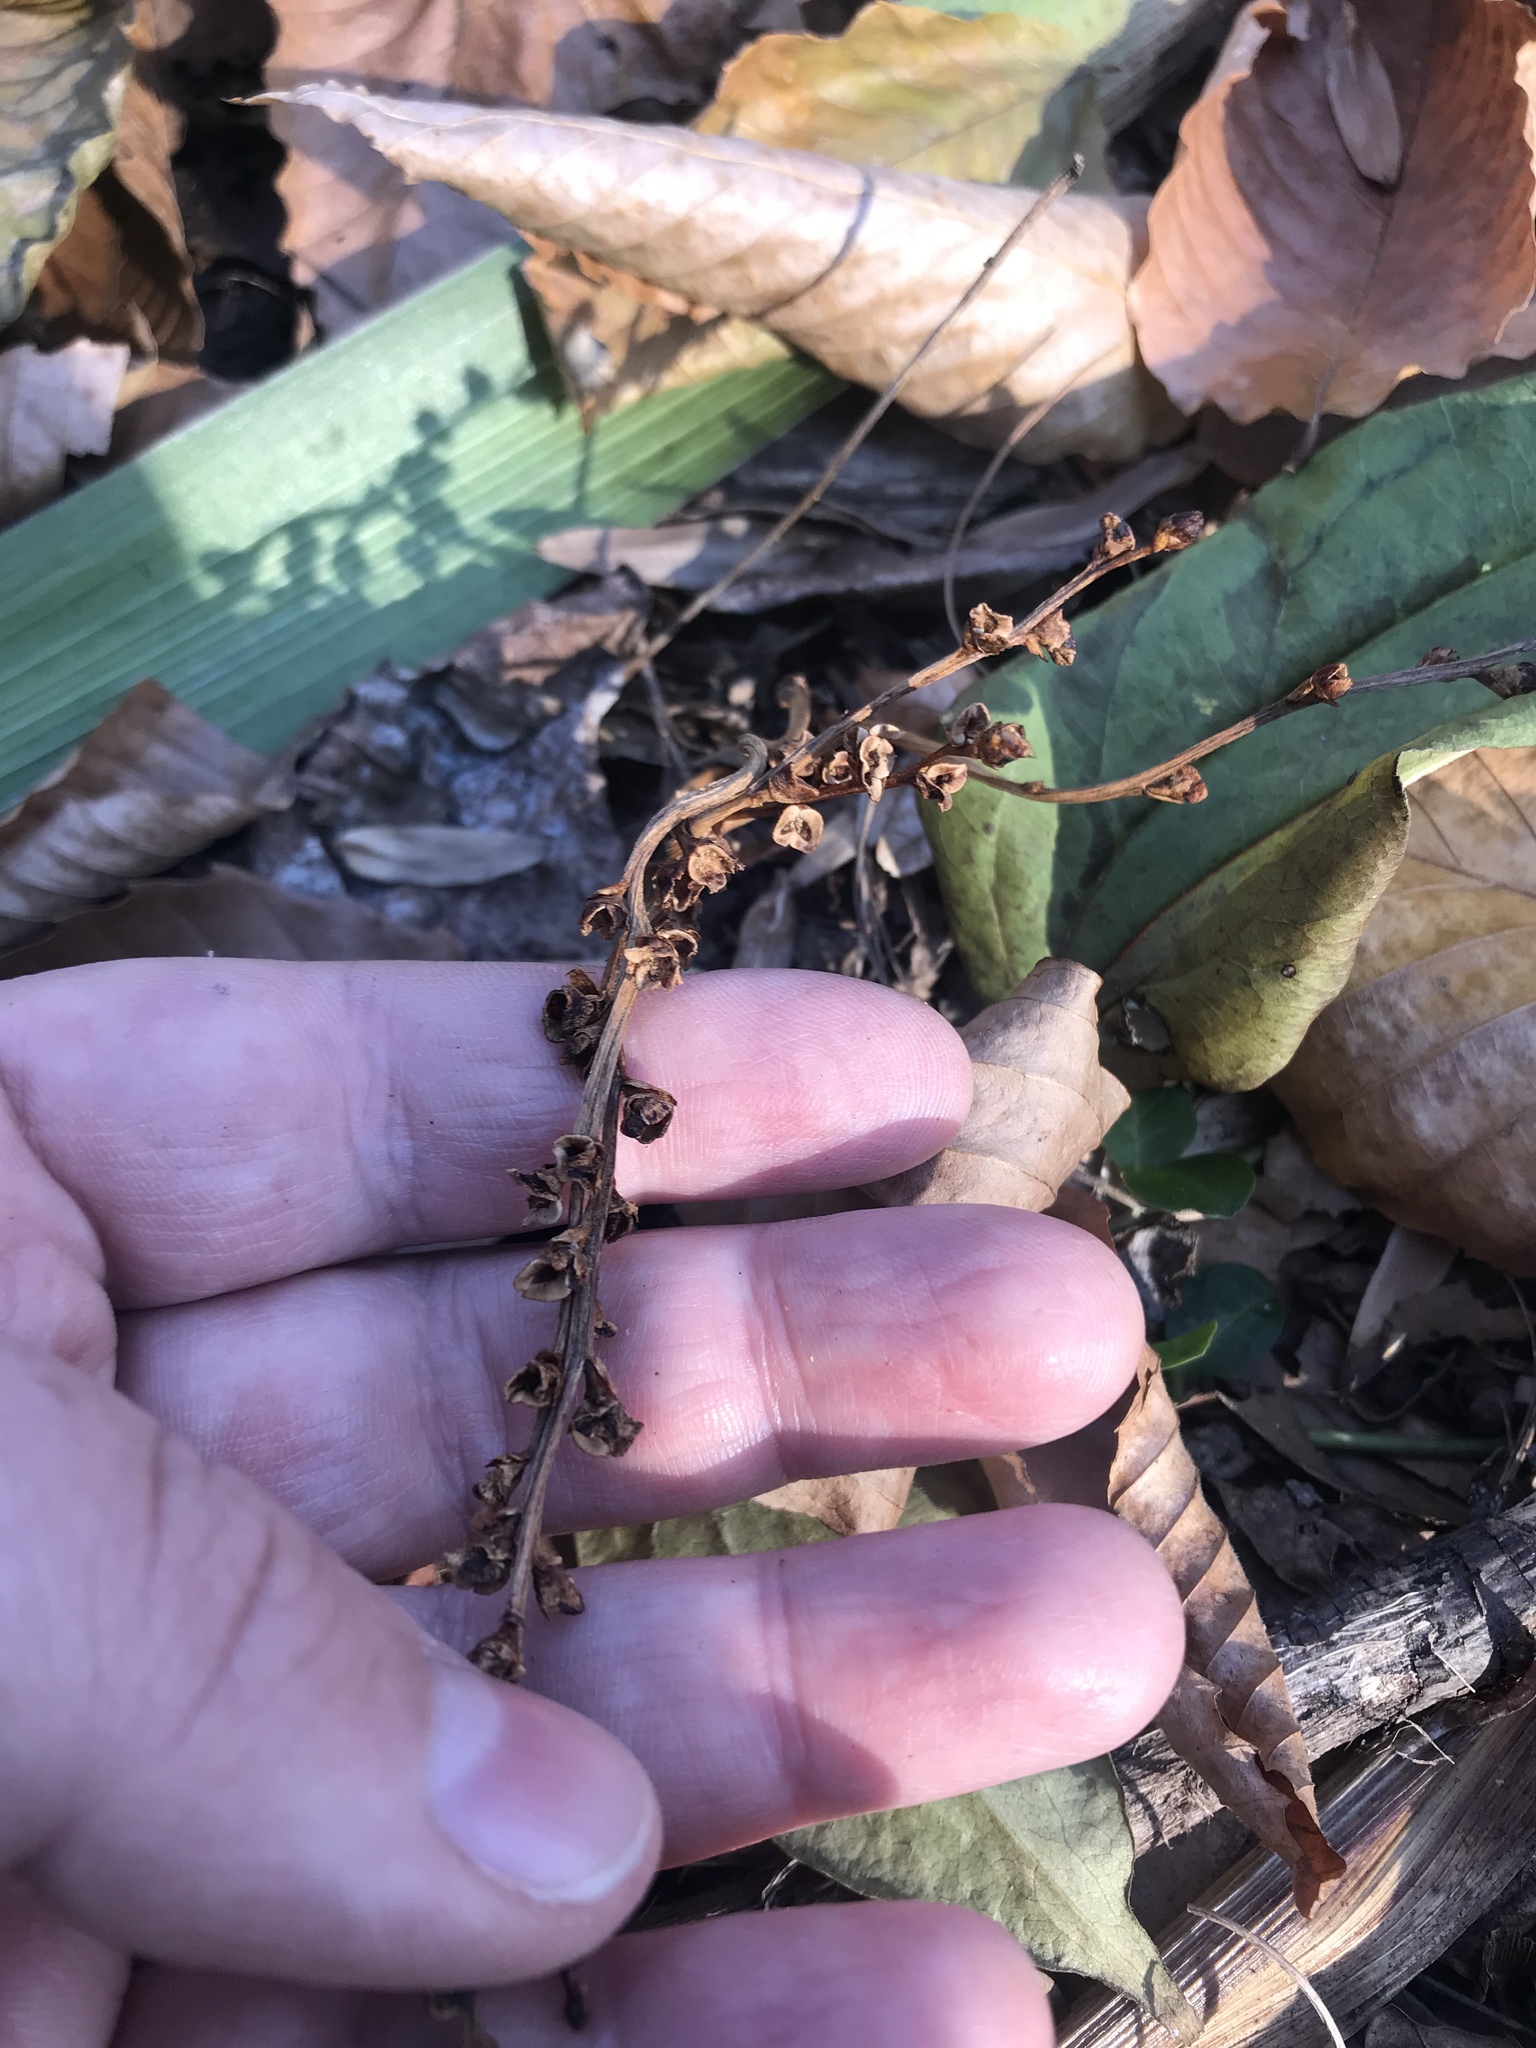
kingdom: Plantae
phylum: Tracheophyta
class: Magnoliopsida
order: Lamiales
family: Orobanchaceae
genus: Epifagus
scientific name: Epifagus virginiana
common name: Beechdrops
